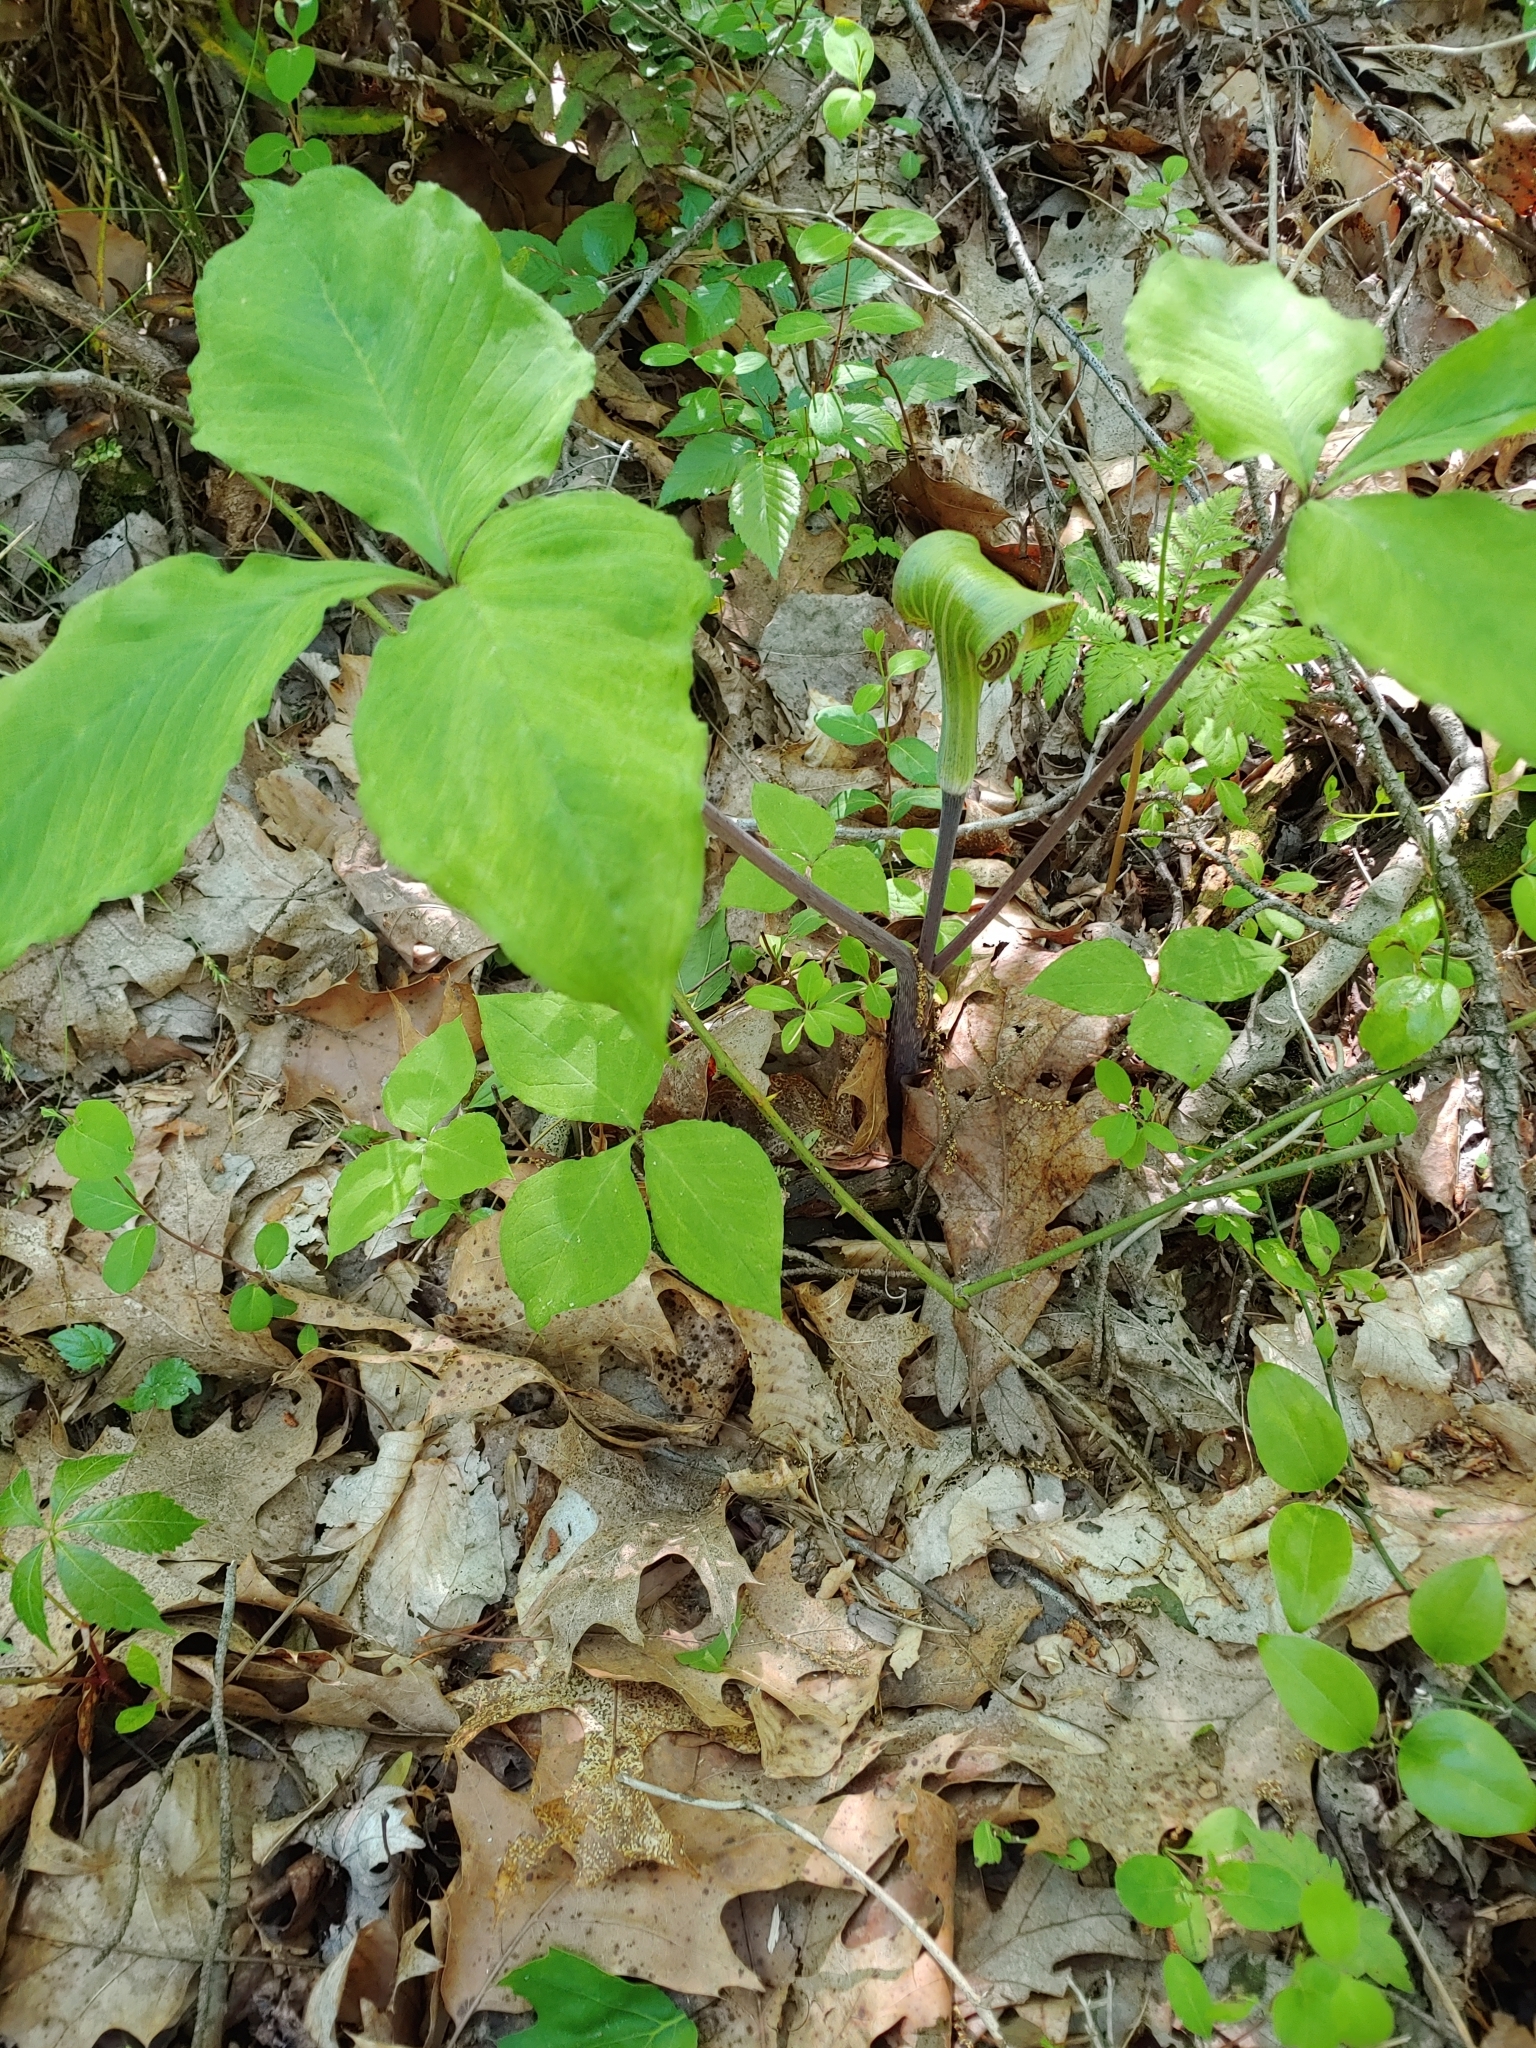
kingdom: Plantae
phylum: Tracheophyta
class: Liliopsida
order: Alismatales
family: Araceae
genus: Arisaema
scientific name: Arisaema triphyllum
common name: Jack-in-the-pulpit
